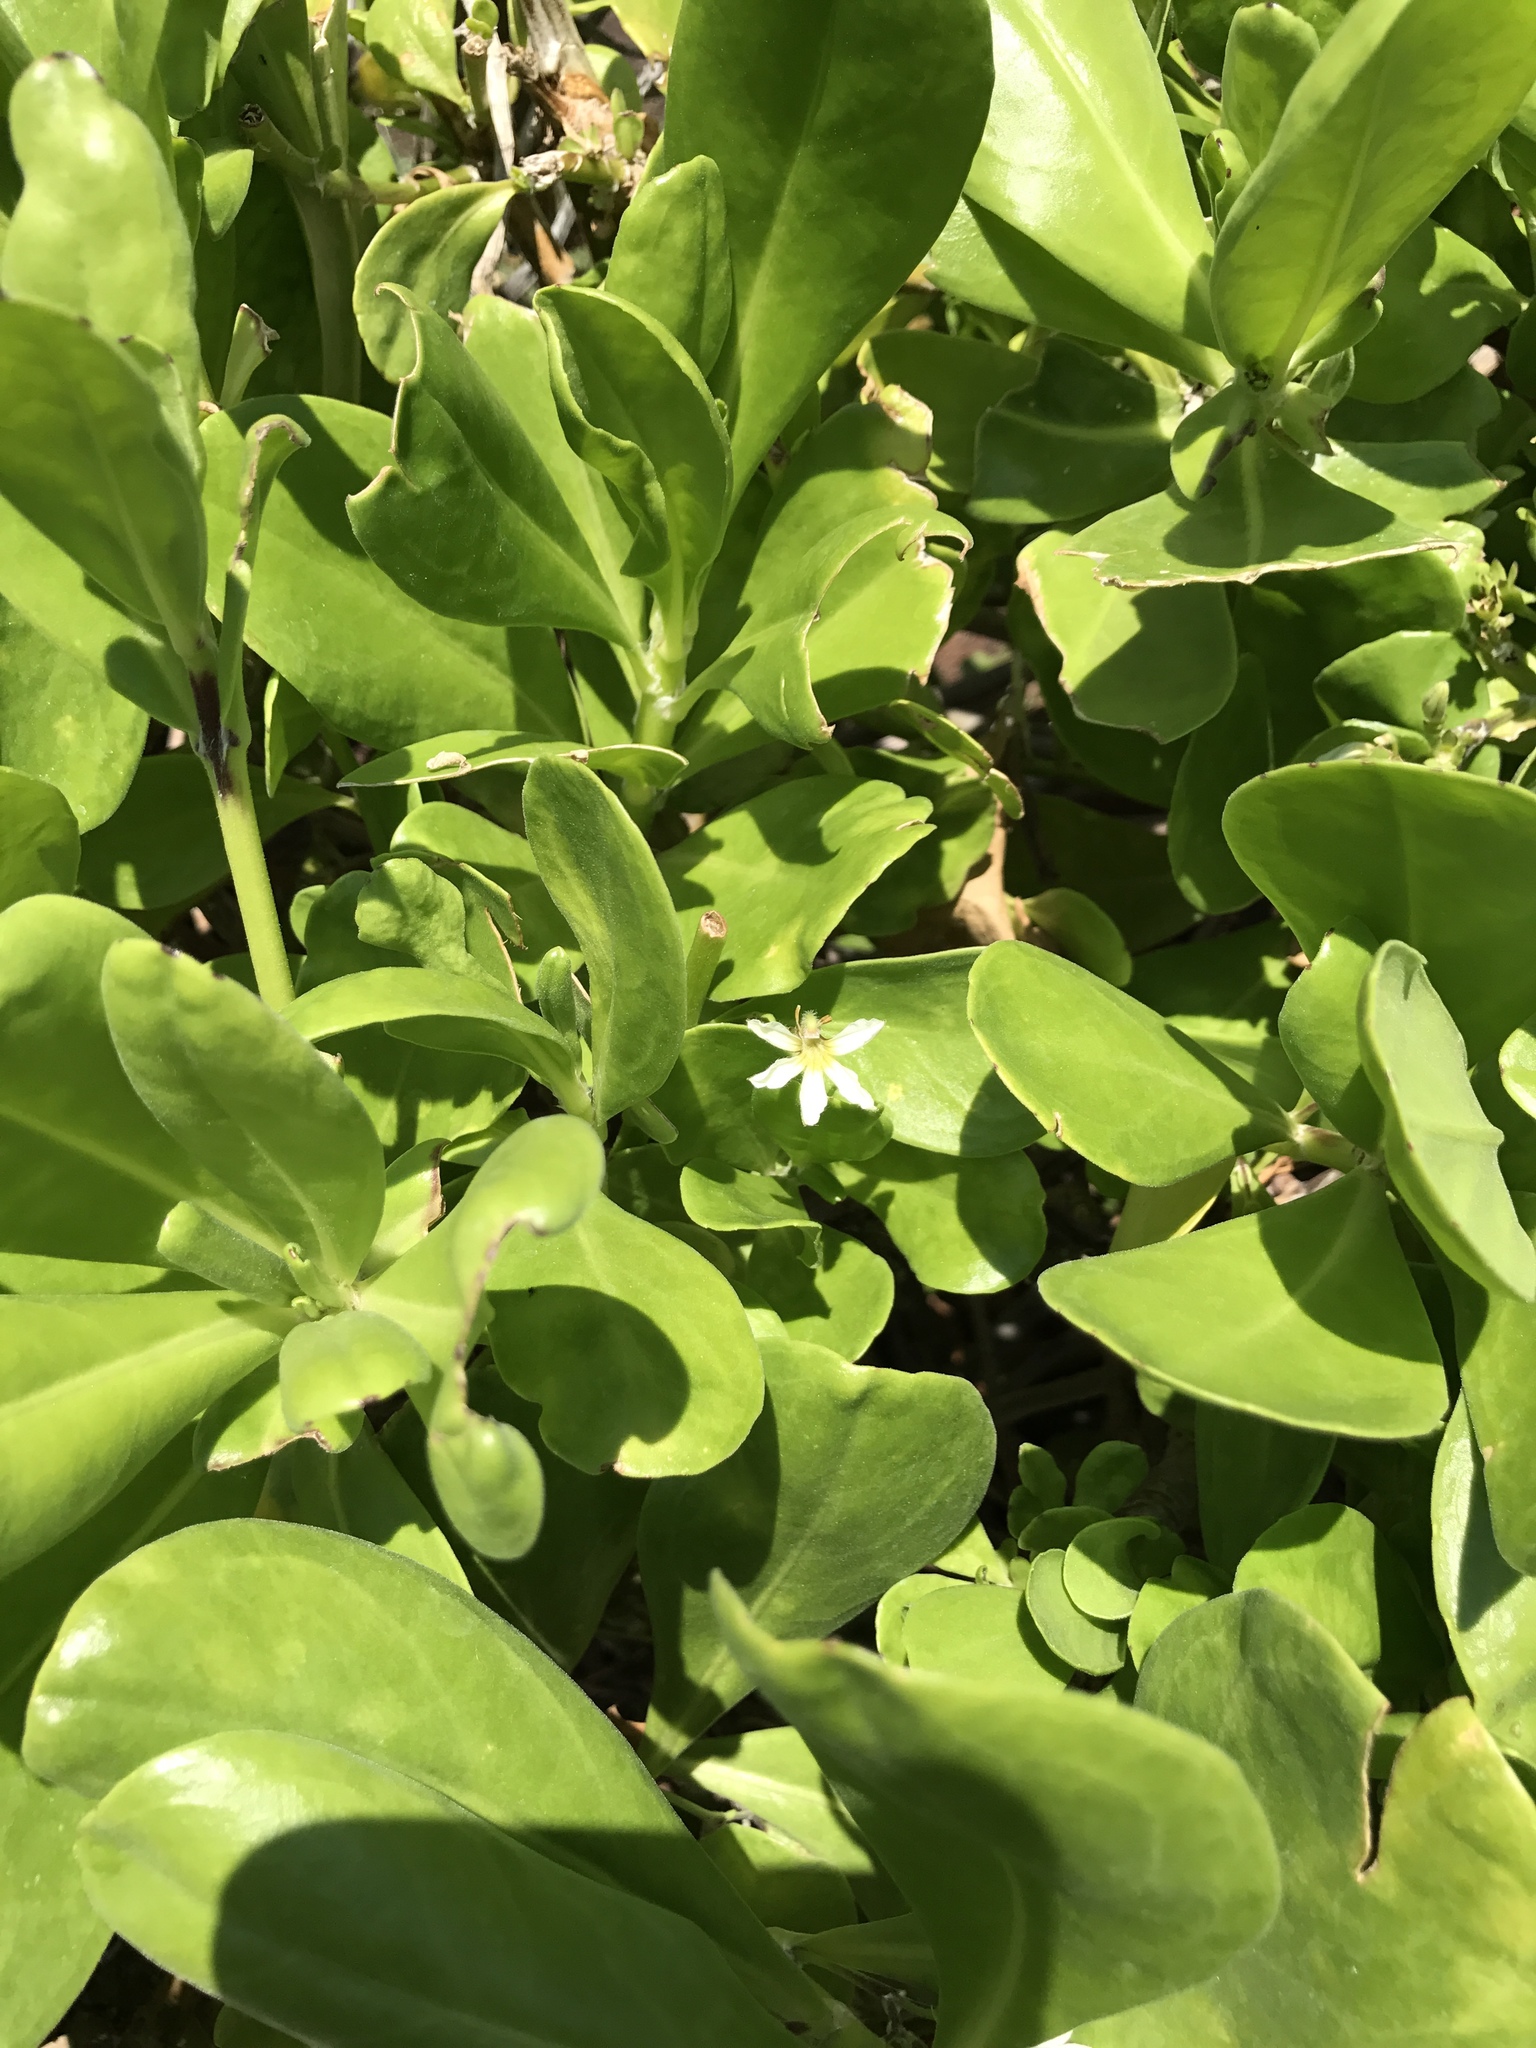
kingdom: Plantae
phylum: Tracheophyta
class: Magnoliopsida
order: Asterales
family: Goodeniaceae
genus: Scaevola
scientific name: Scaevola taccada
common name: Sea lettucetree
